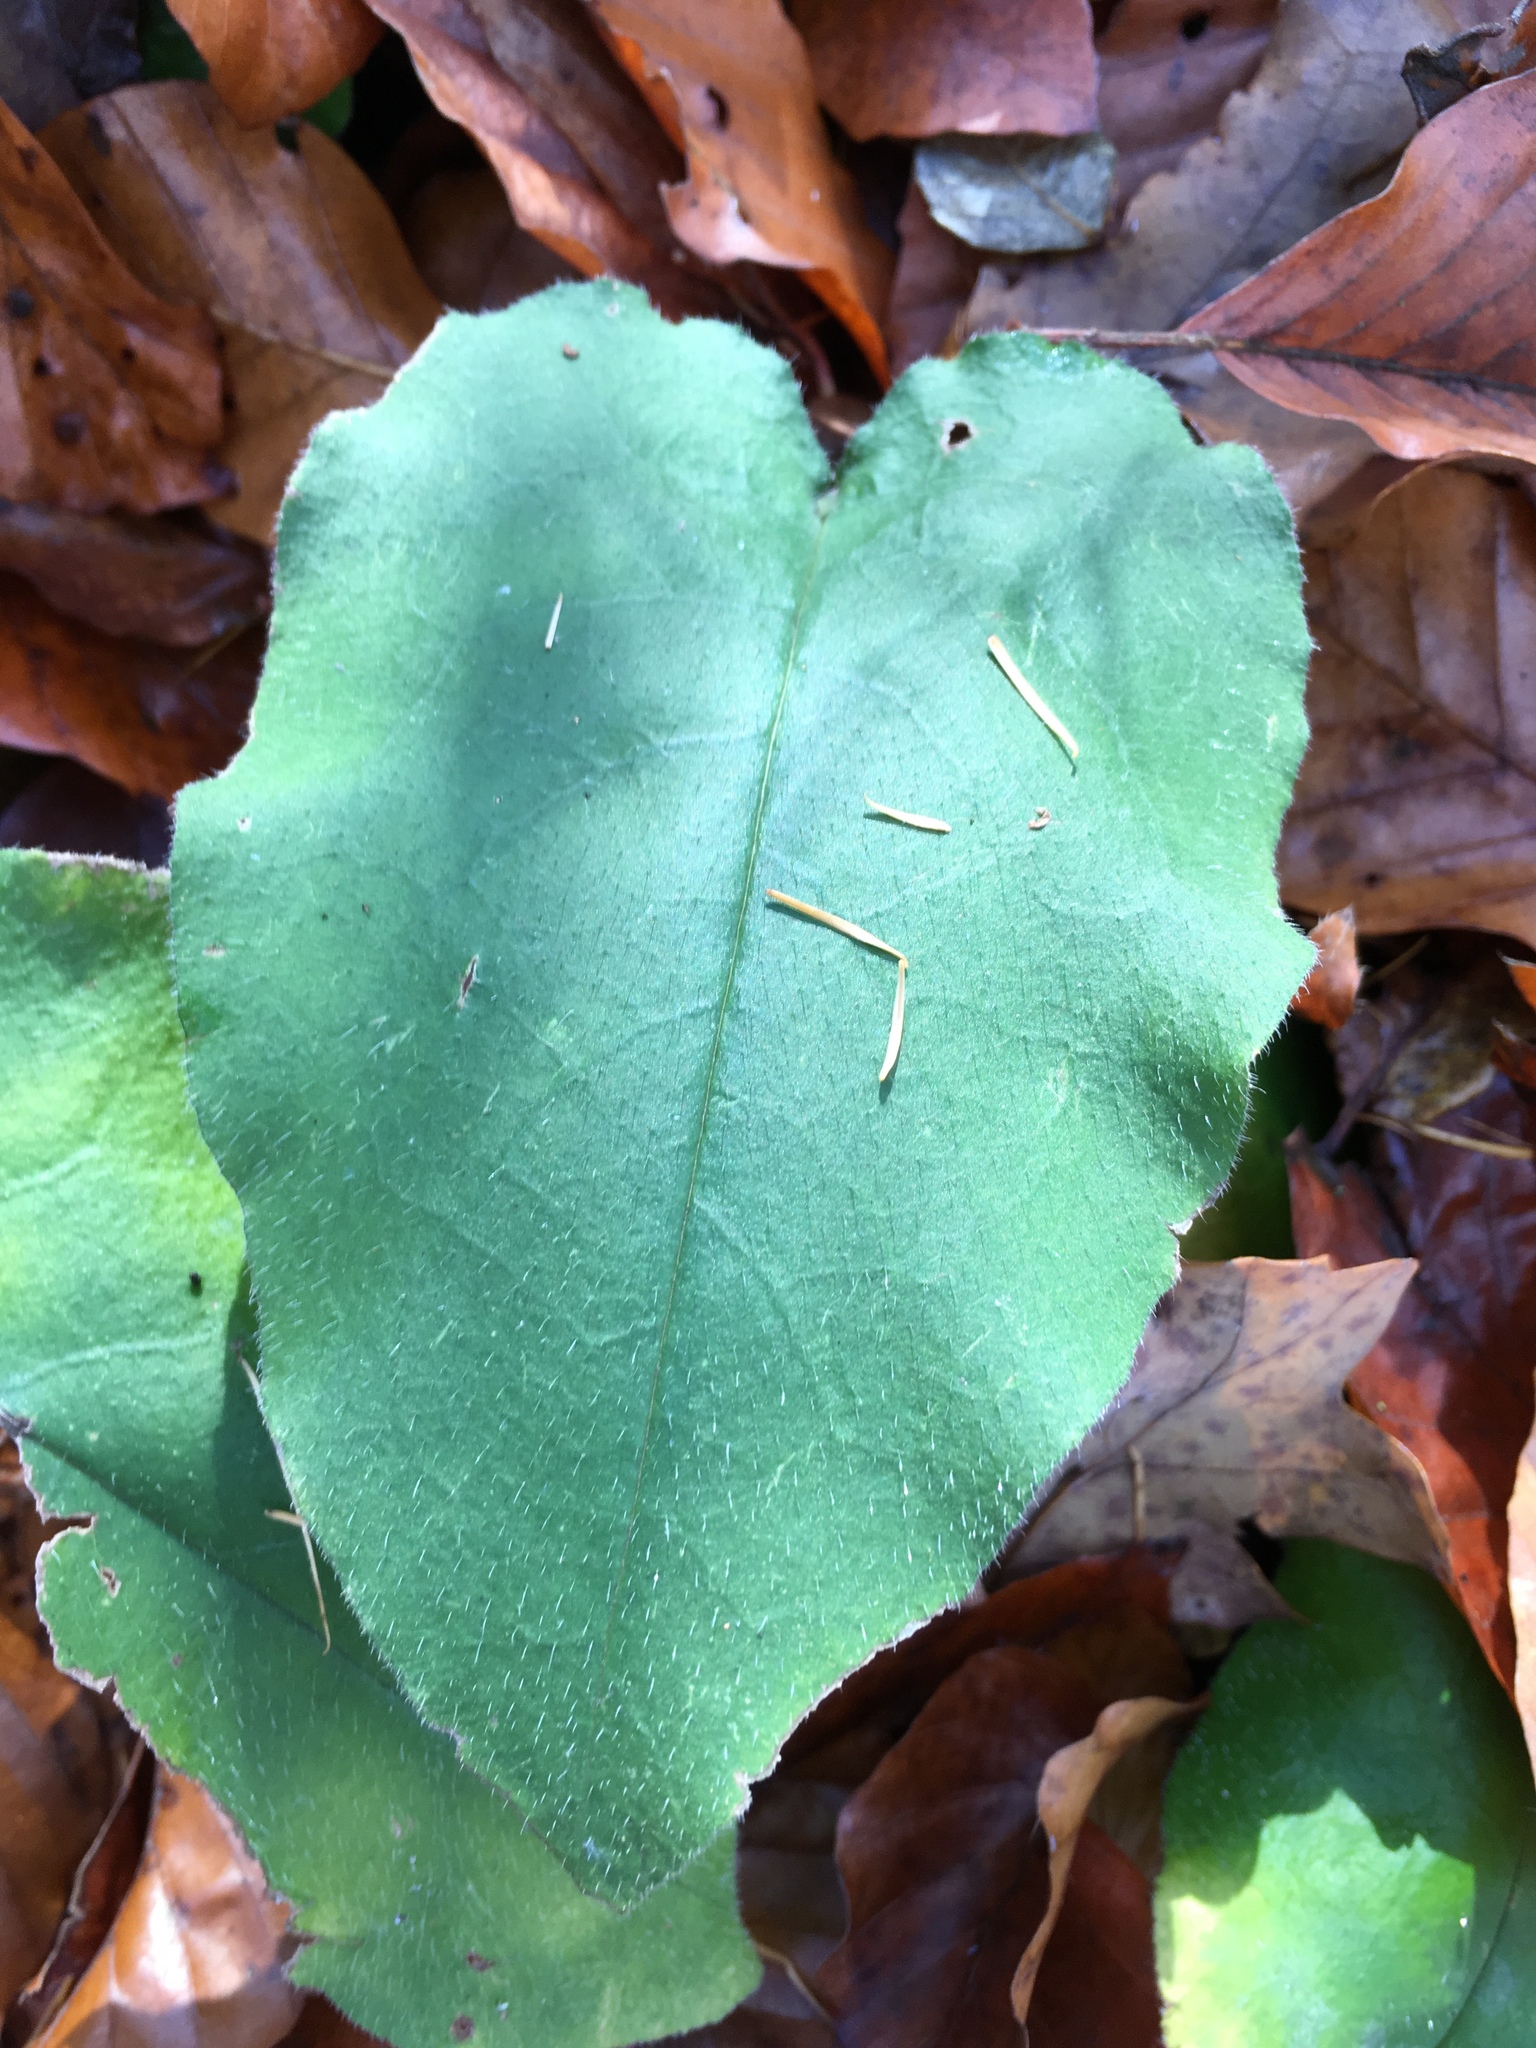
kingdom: Plantae
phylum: Tracheophyta
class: Magnoliopsida
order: Boraginales
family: Boraginaceae
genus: Pulmonaria
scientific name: Pulmonaria obscura
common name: Suffolk lungwort
